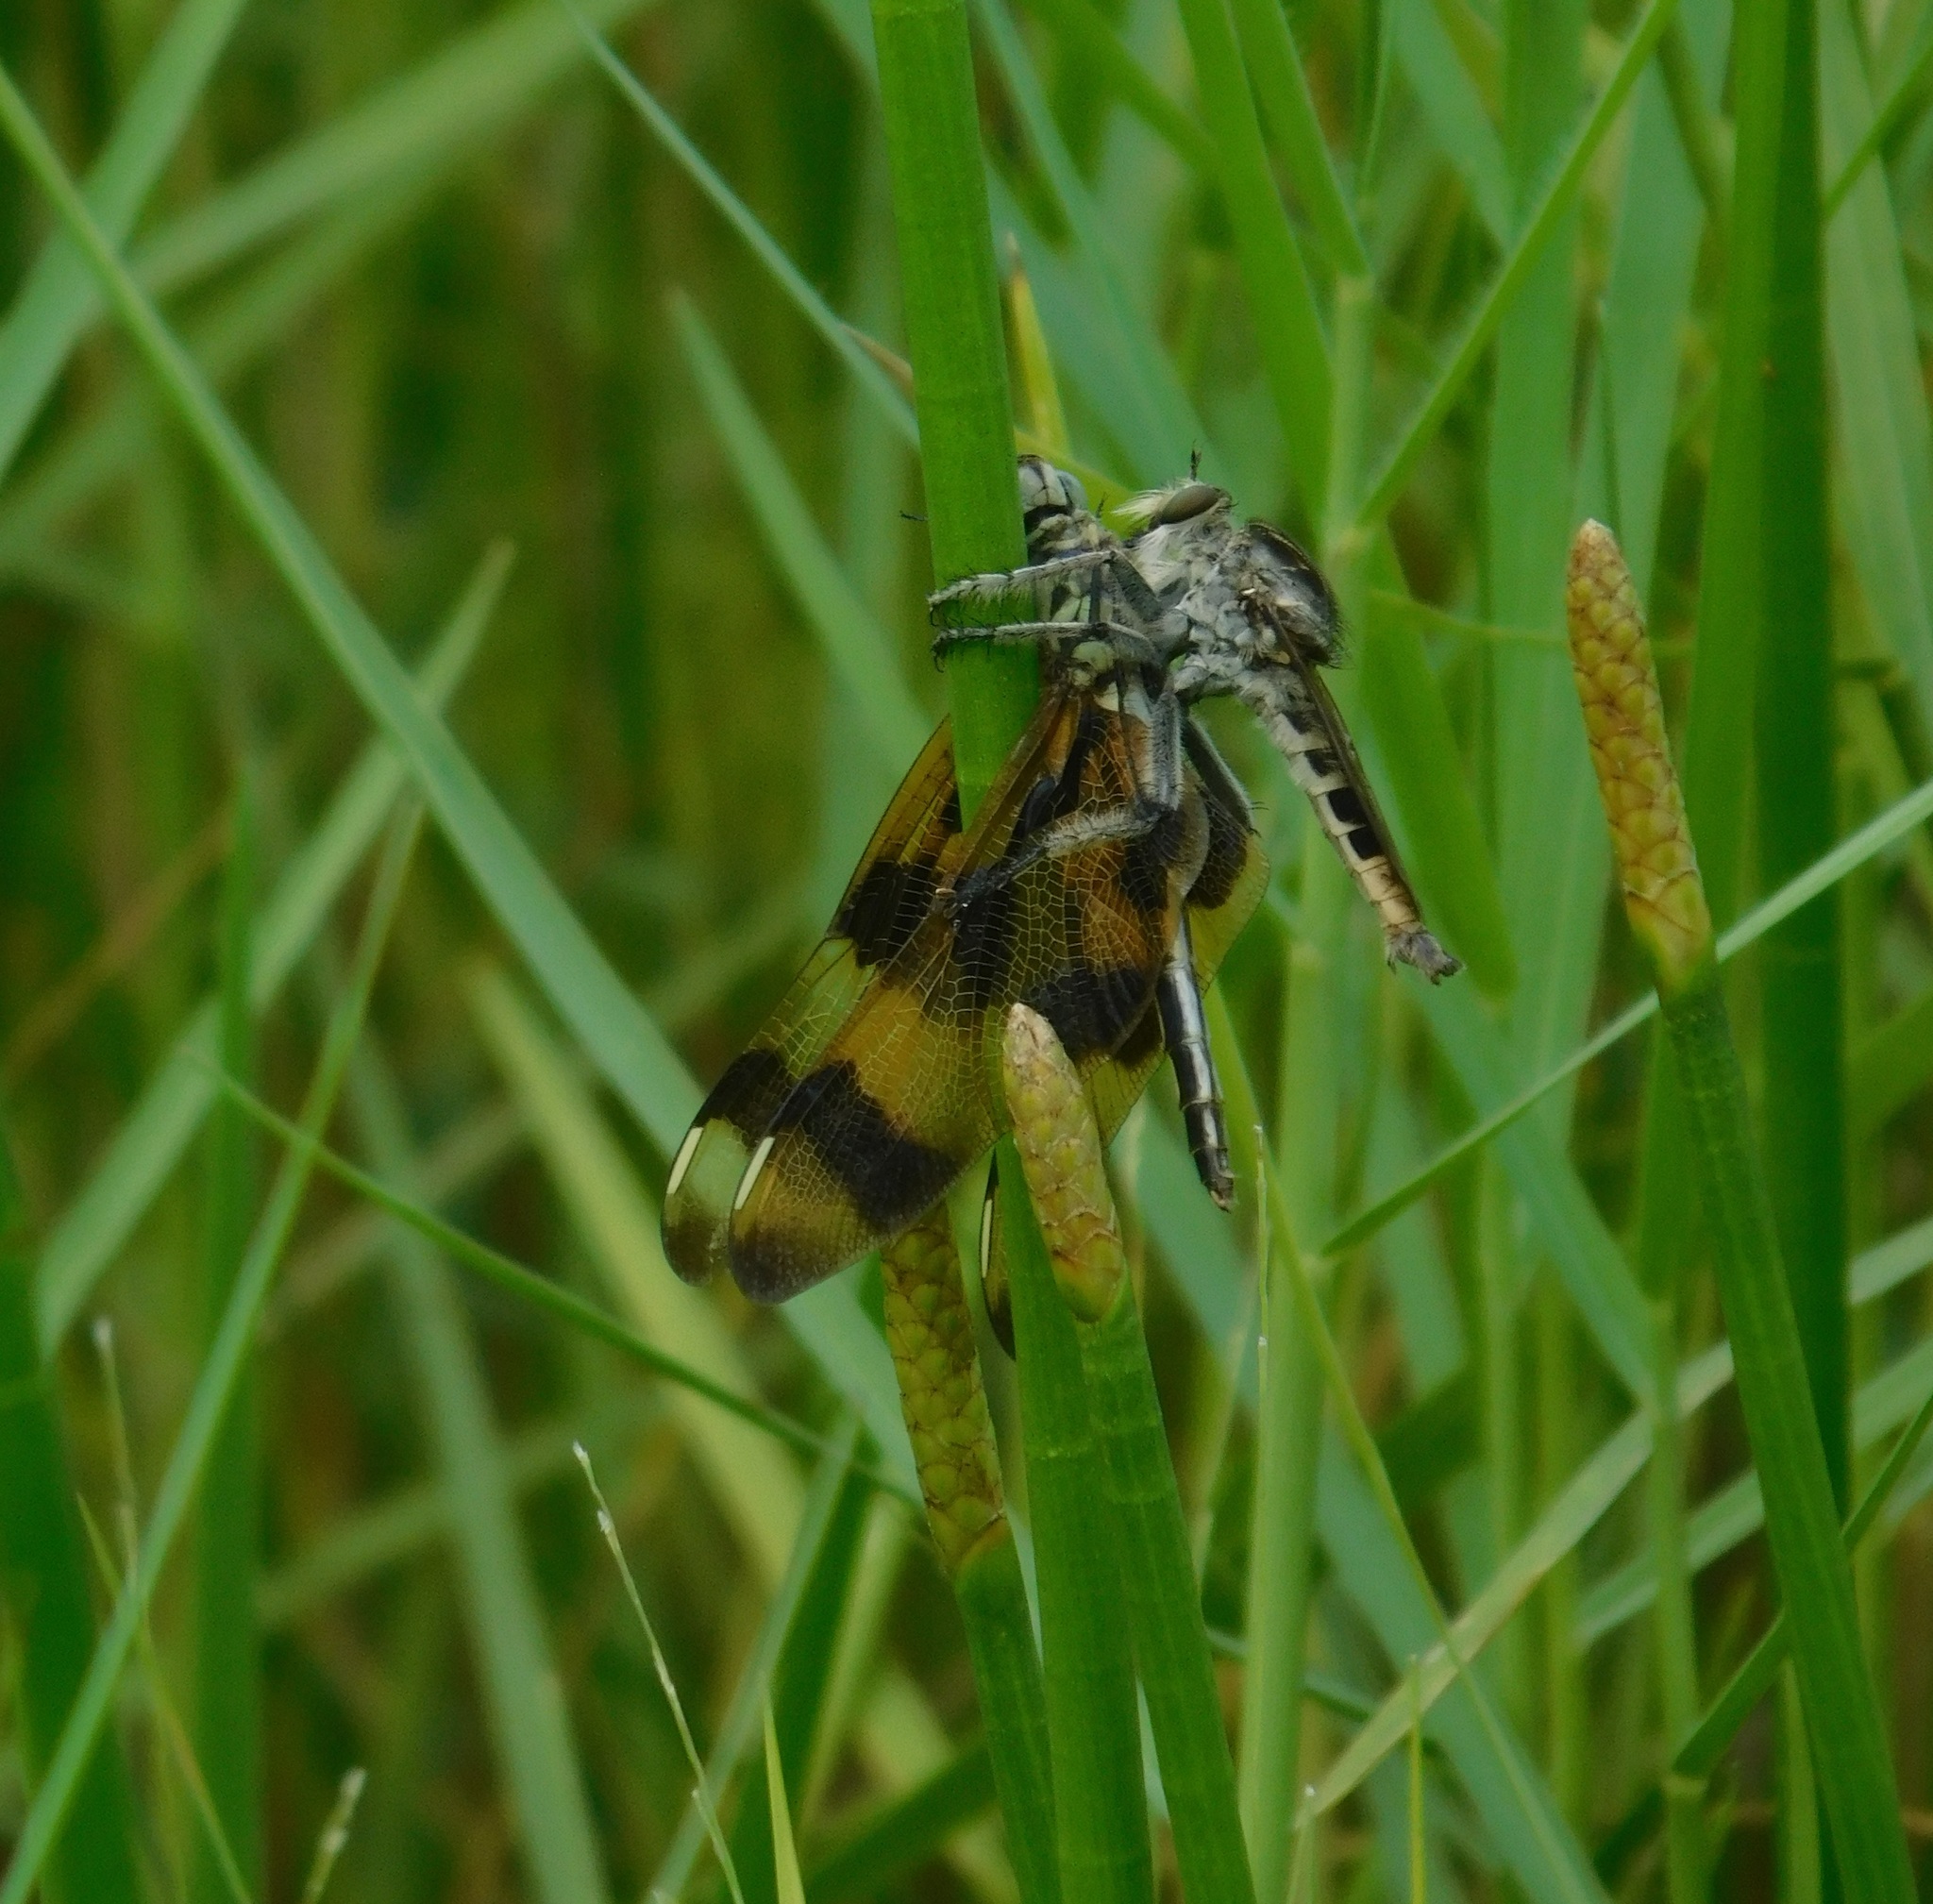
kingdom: Animalia
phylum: Arthropoda
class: Insecta
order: Diptera
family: Asilidae
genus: Triorla
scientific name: Triorla interrupta
